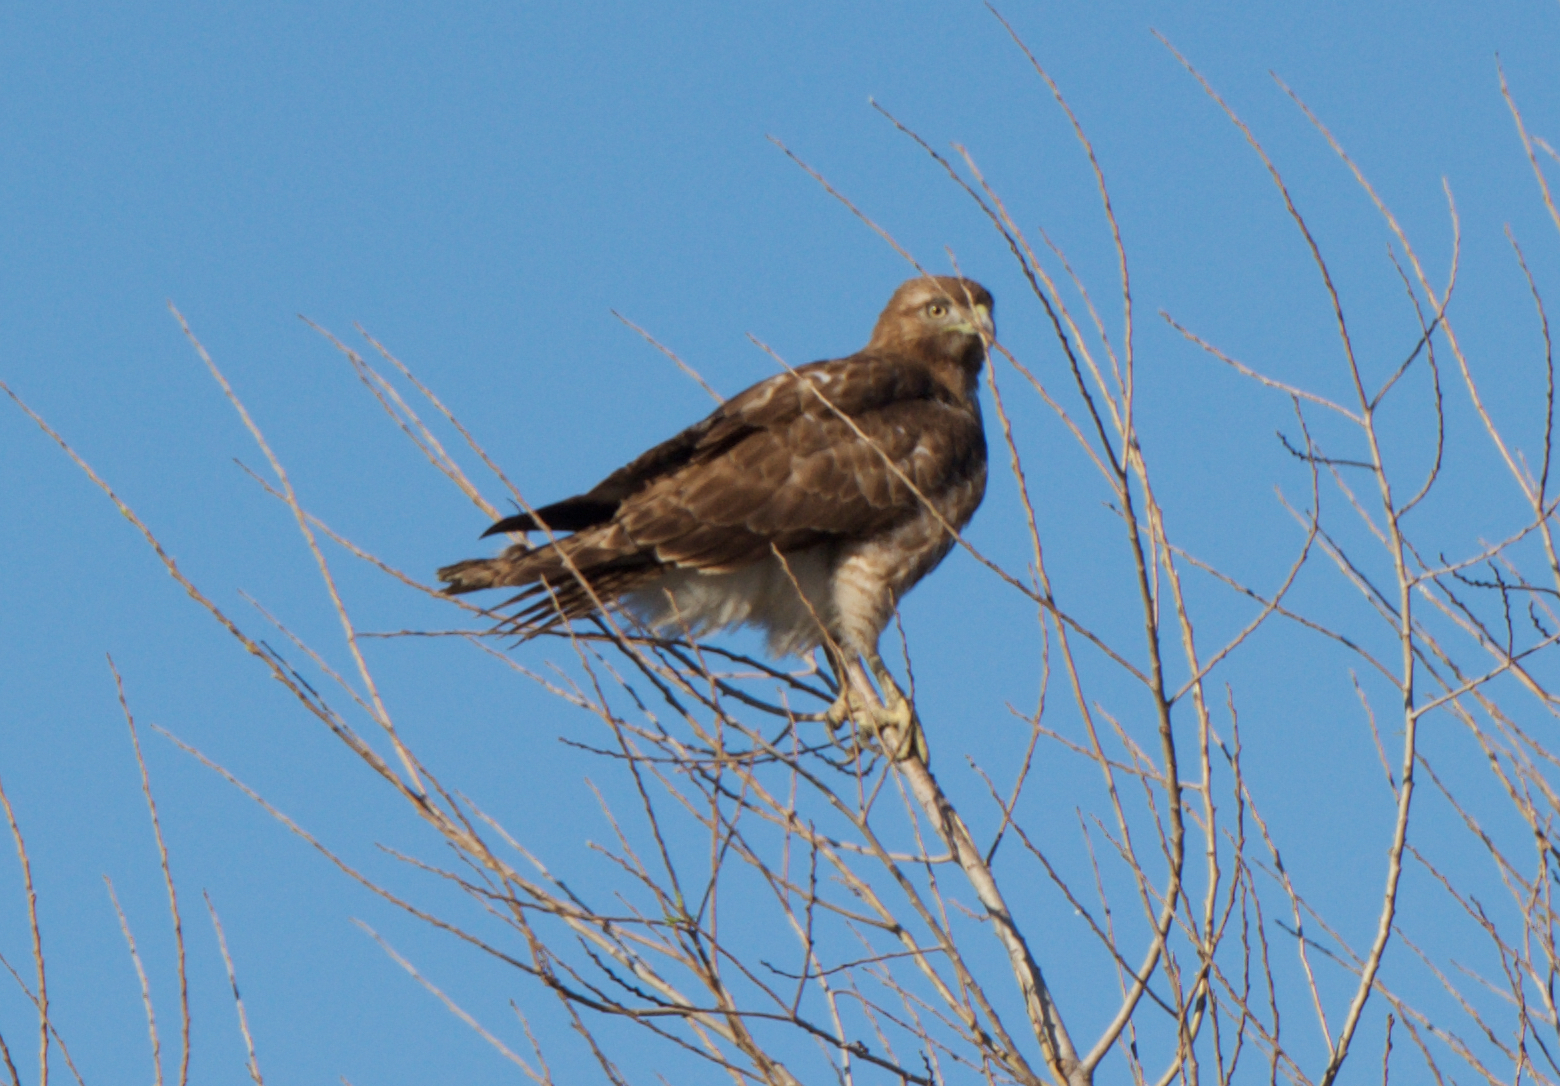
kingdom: Animalia
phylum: Chordata
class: Aves
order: Accipitriformes
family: Accipitridae
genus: Buteo
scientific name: Buteo jamaicensis
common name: Red-tailed hawk
